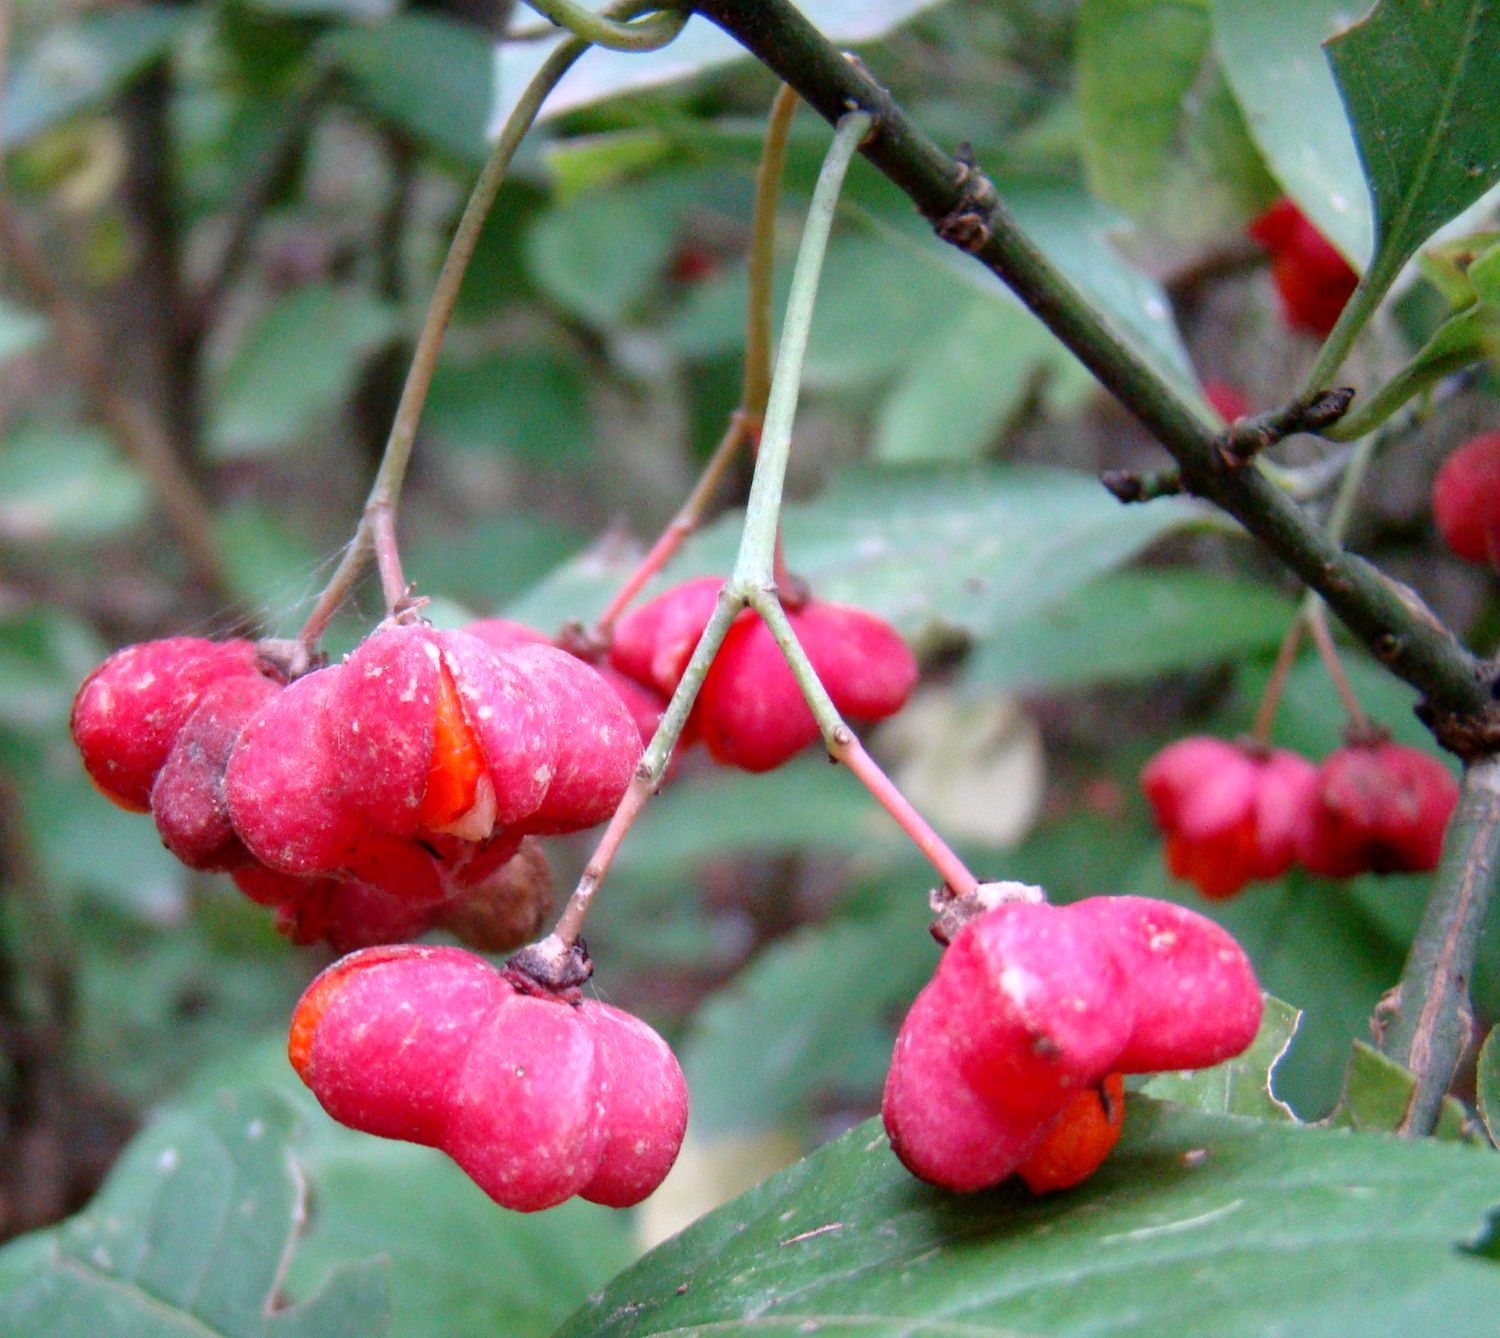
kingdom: Plantae
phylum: Tracheophyta
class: Magnoliopsida
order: Celastrales
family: Celastraceae
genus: Euonymus
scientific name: Euonymus europaeus
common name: Spindle
